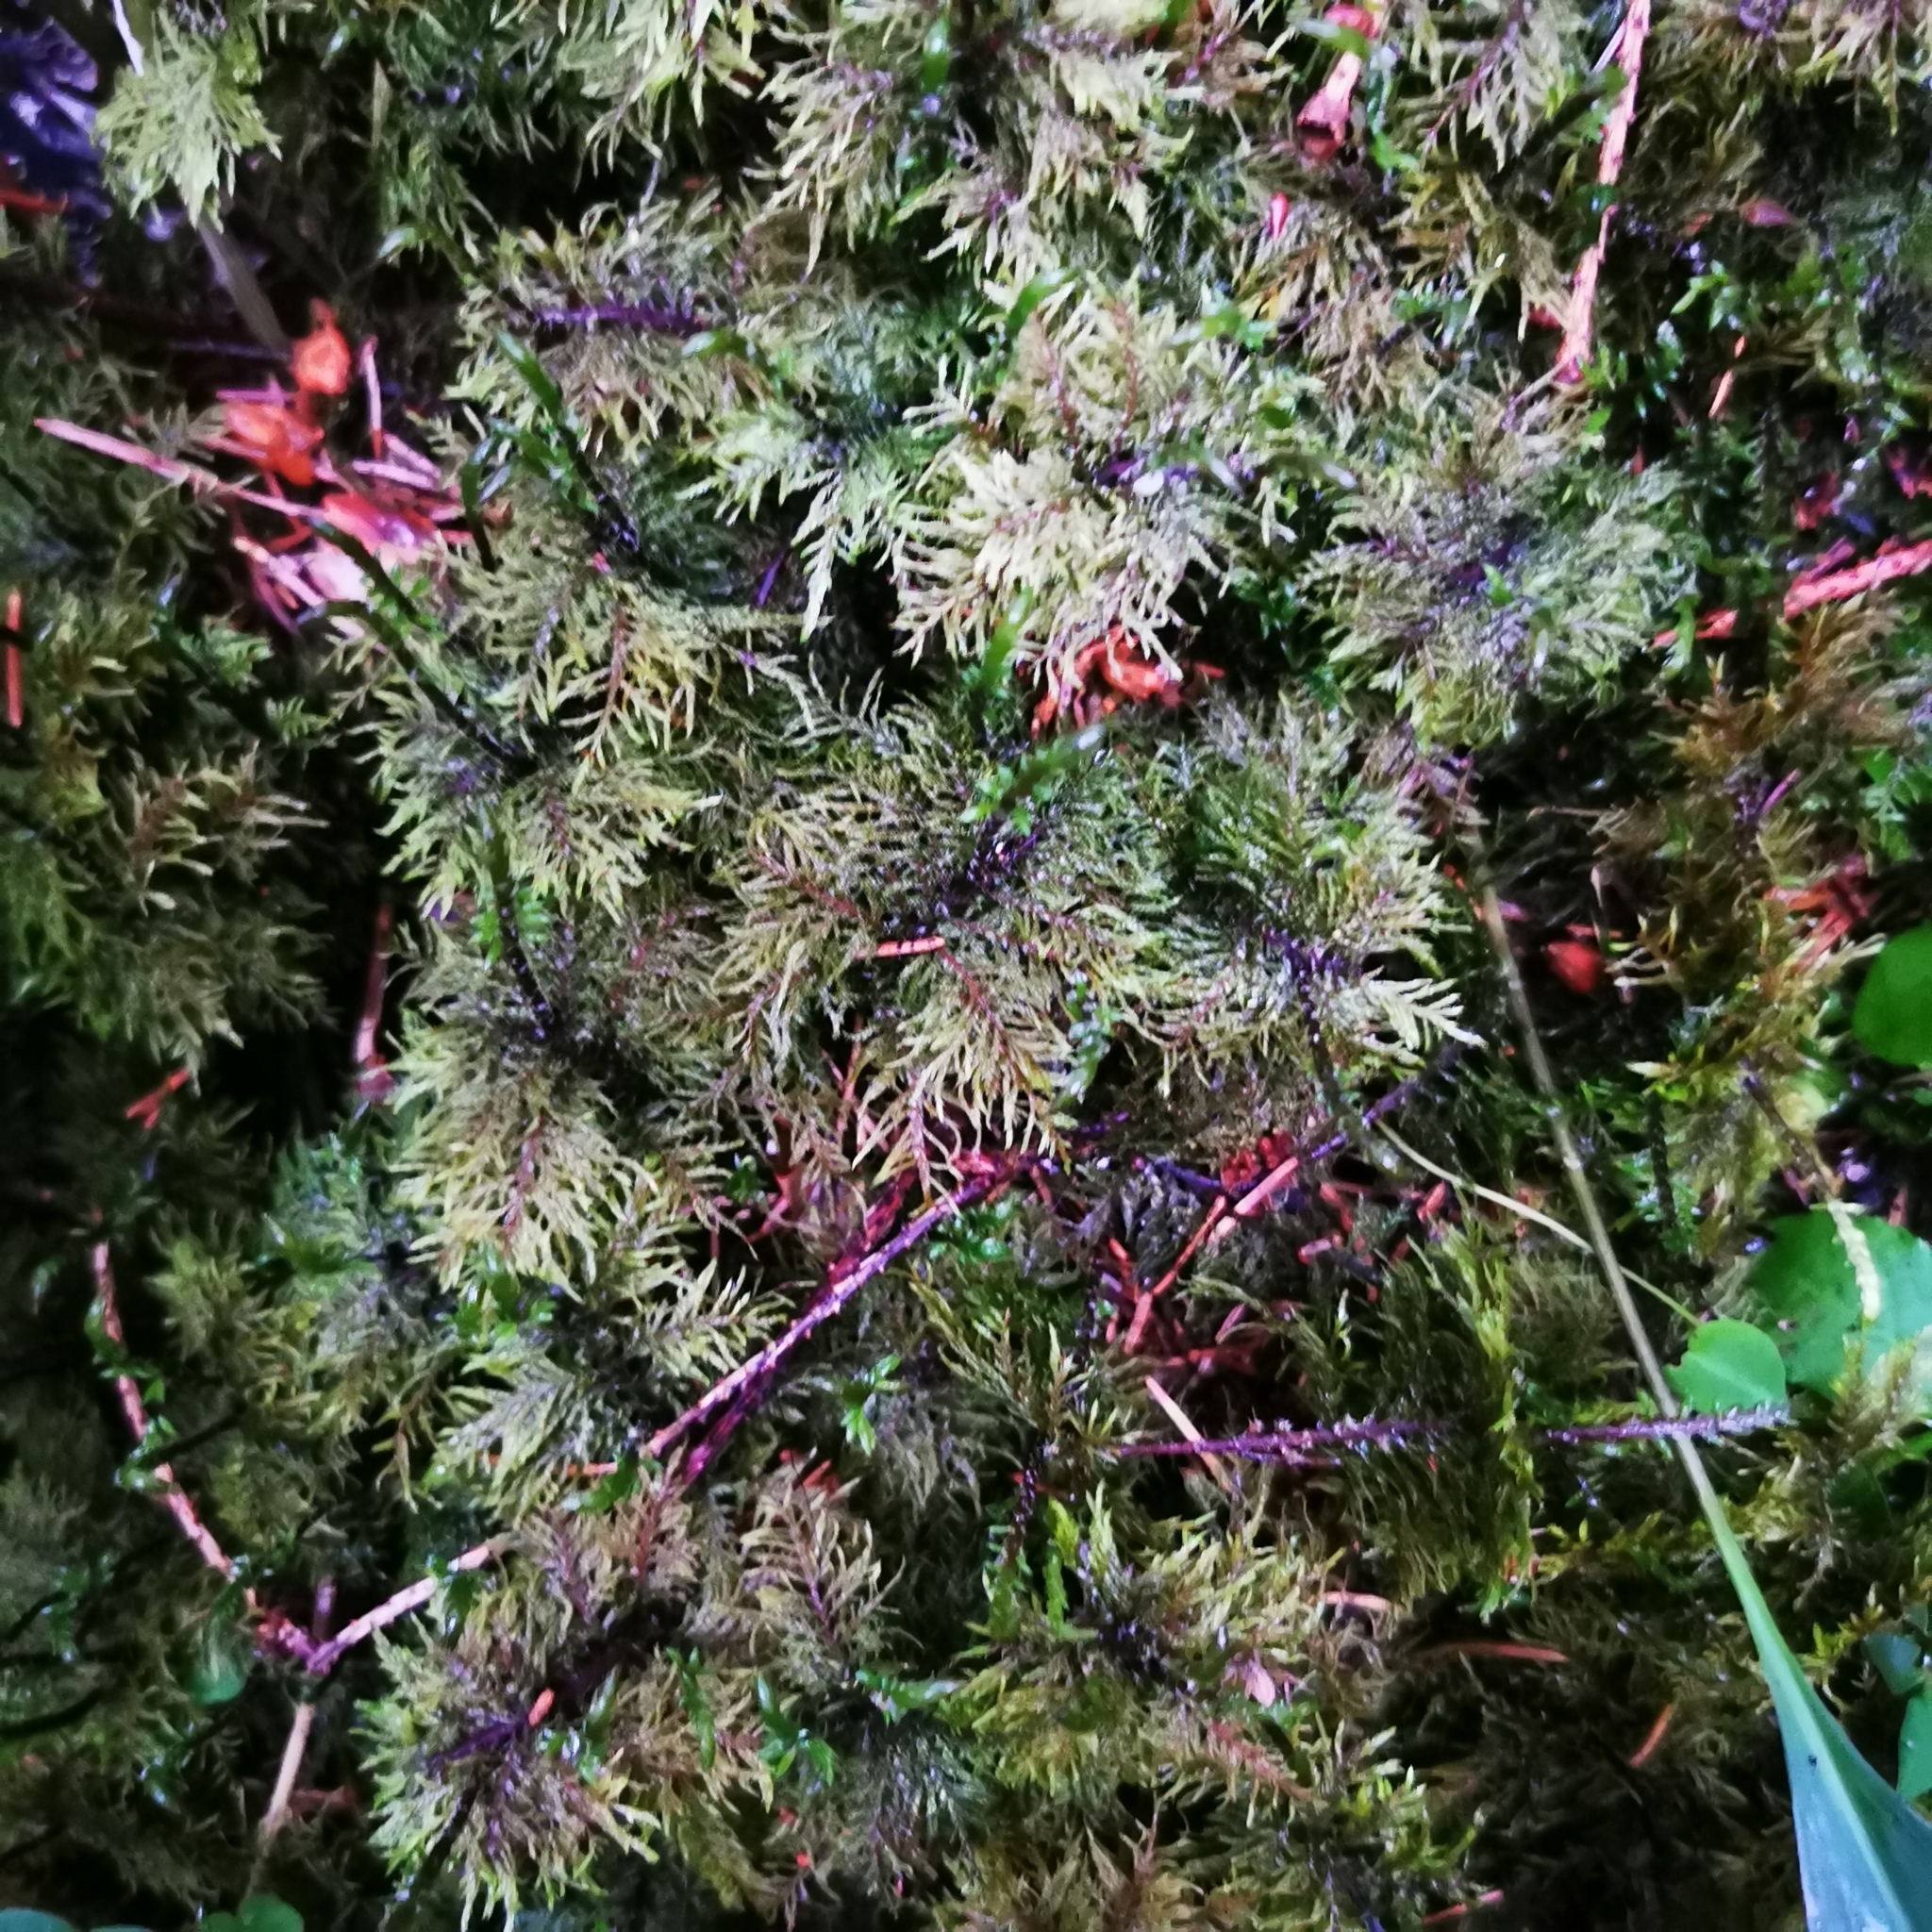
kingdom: Plantae
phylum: Bryophyta
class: Bryopsida
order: Hypnales
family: Hylocomiaceae
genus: Hylocomium
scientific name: Hylocomium splendens
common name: Stairstep moss
